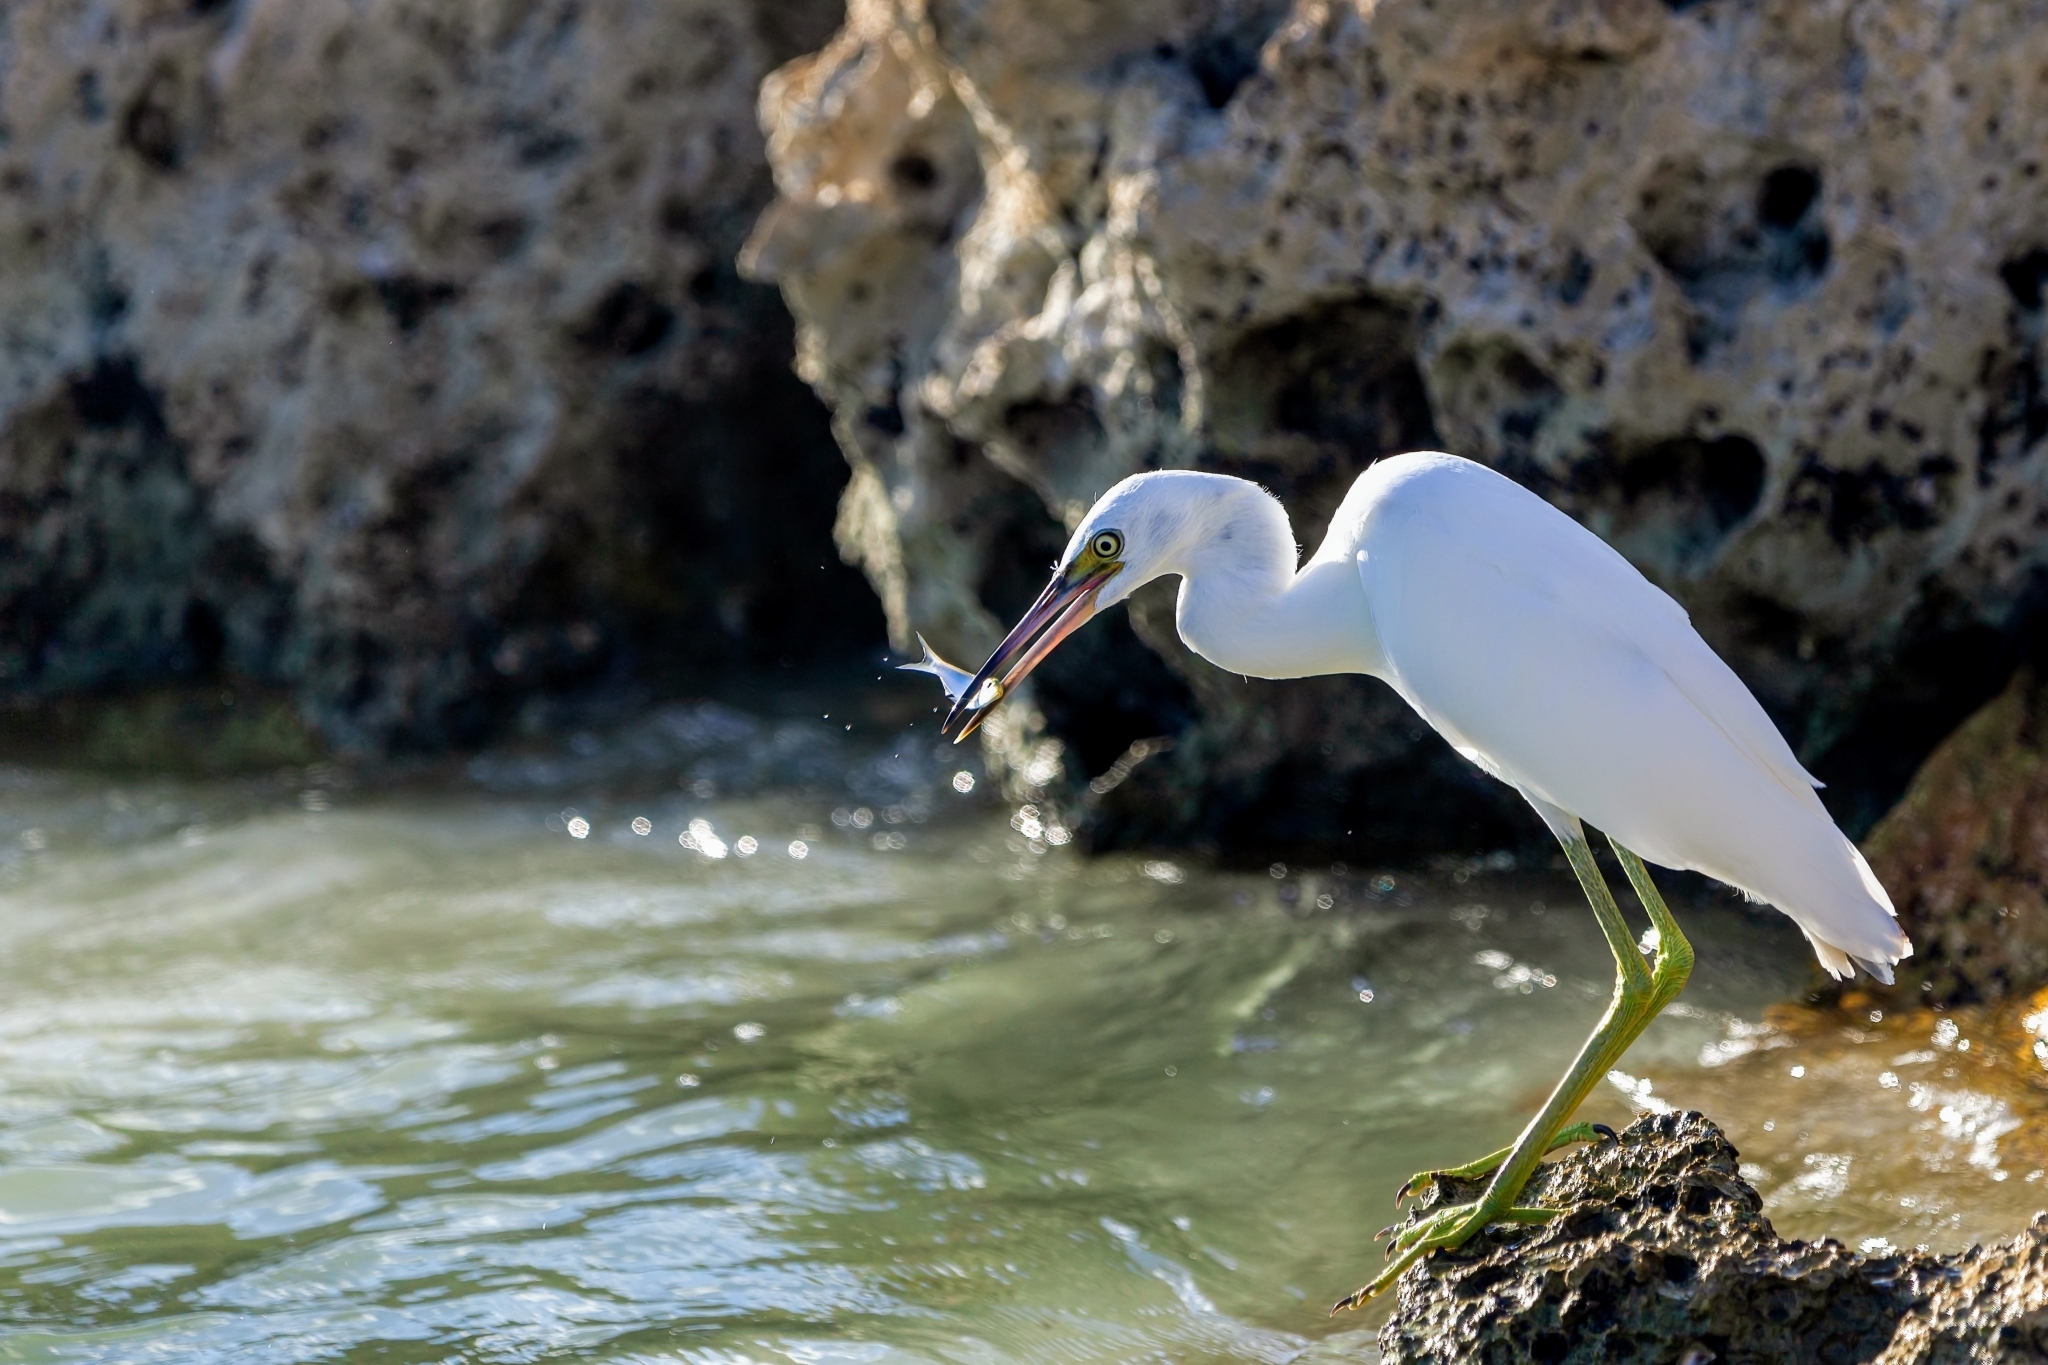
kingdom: Animalia
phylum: Chordata
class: Aves
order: Pelecaniformes
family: Ardeidae
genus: Egretta
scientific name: Egretta caerulea
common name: Little blue heron
